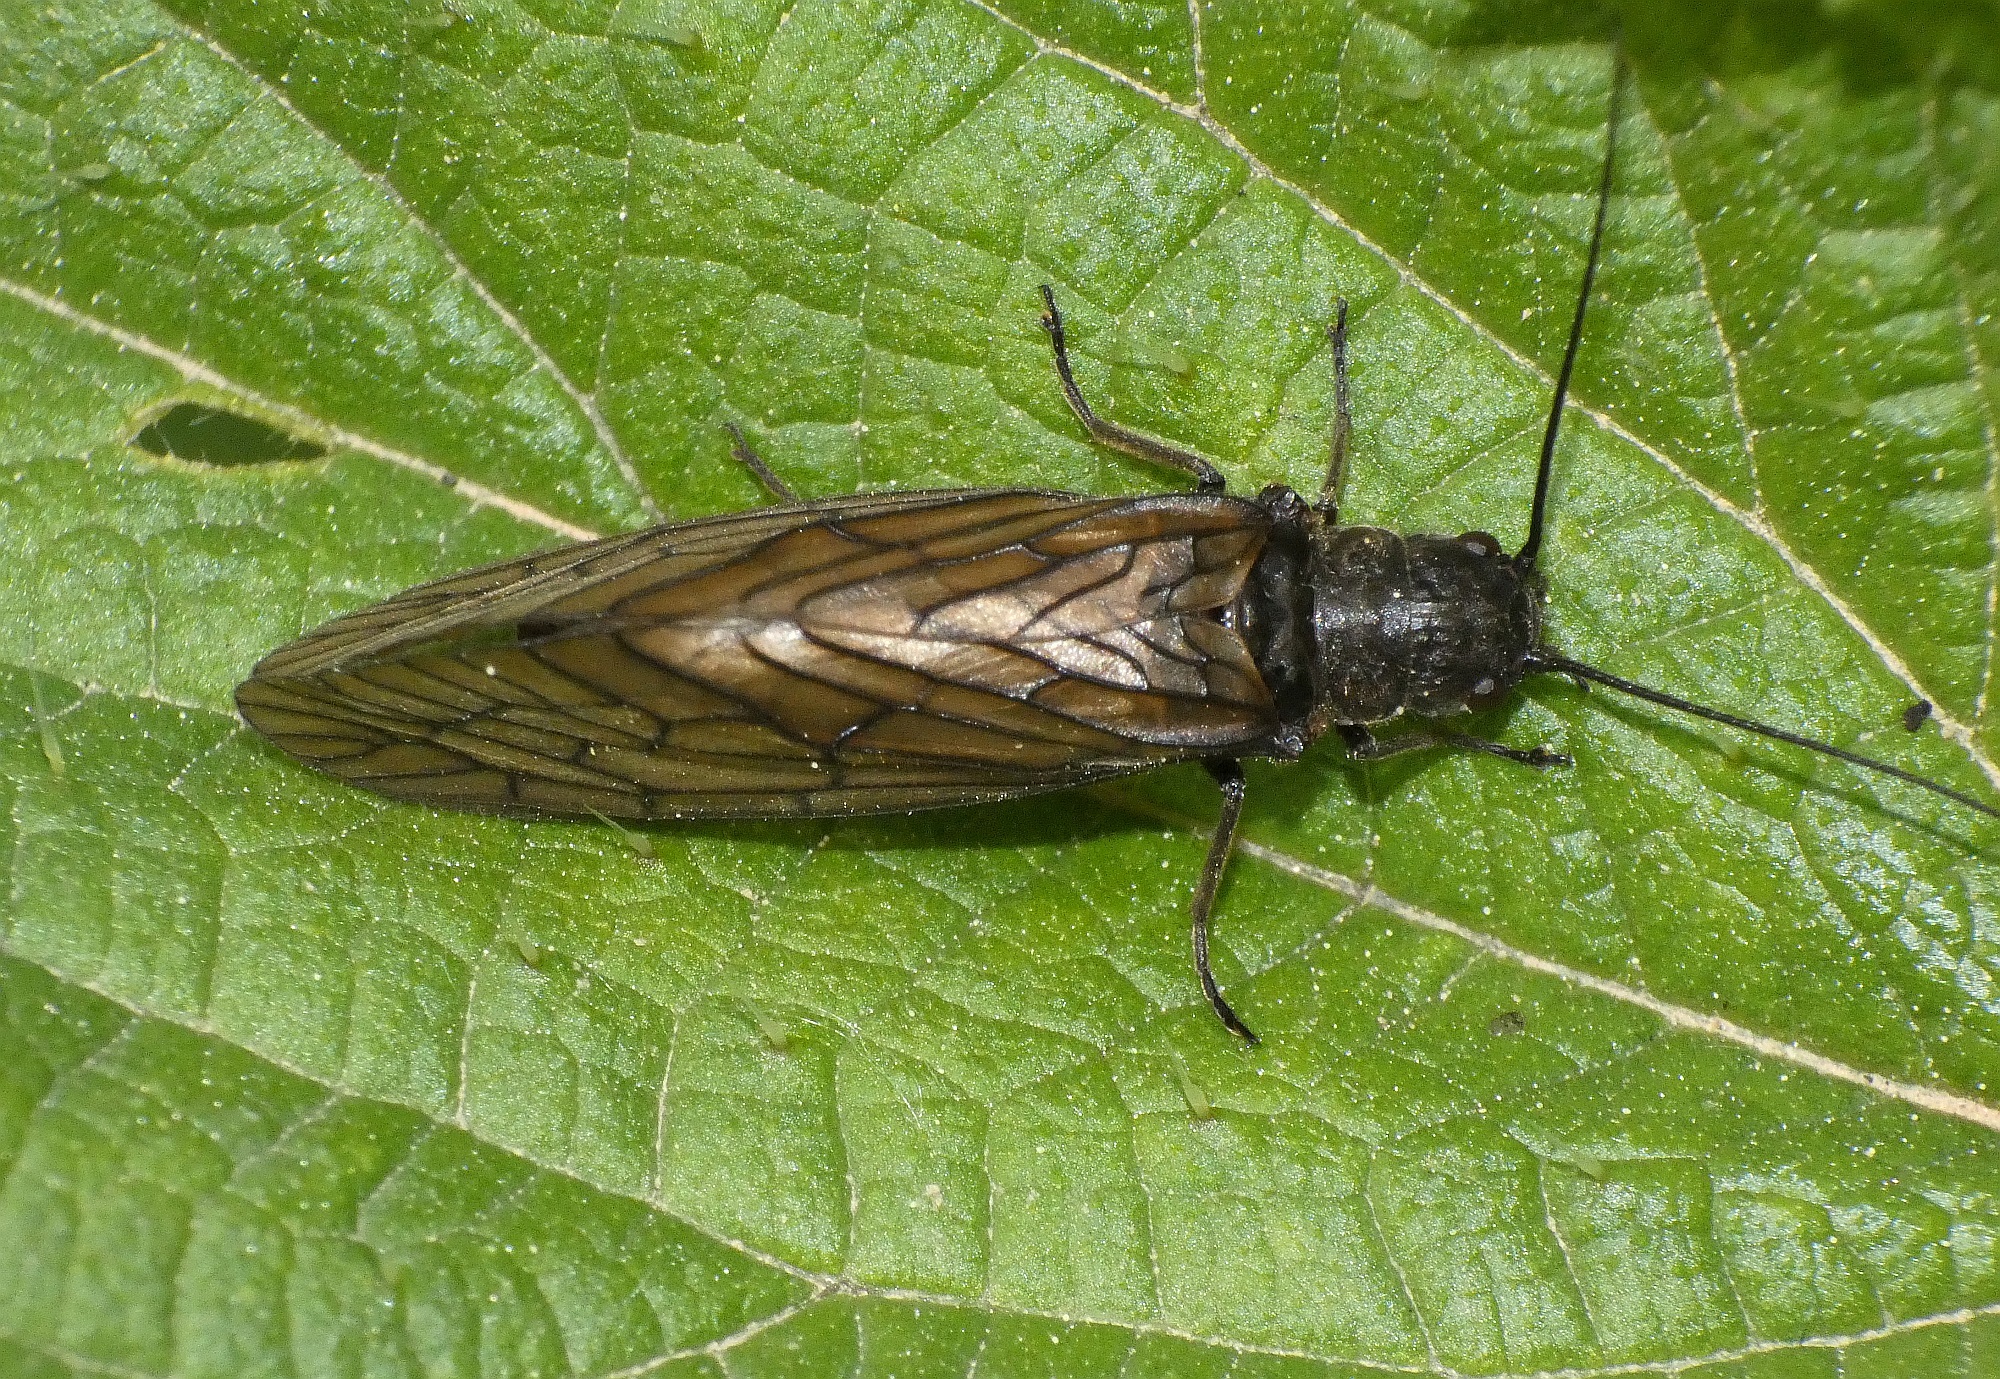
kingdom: Animalia
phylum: Arthropoda
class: Insecta
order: Megaloptera
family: Sialidae
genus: Sialis
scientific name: Sialis
